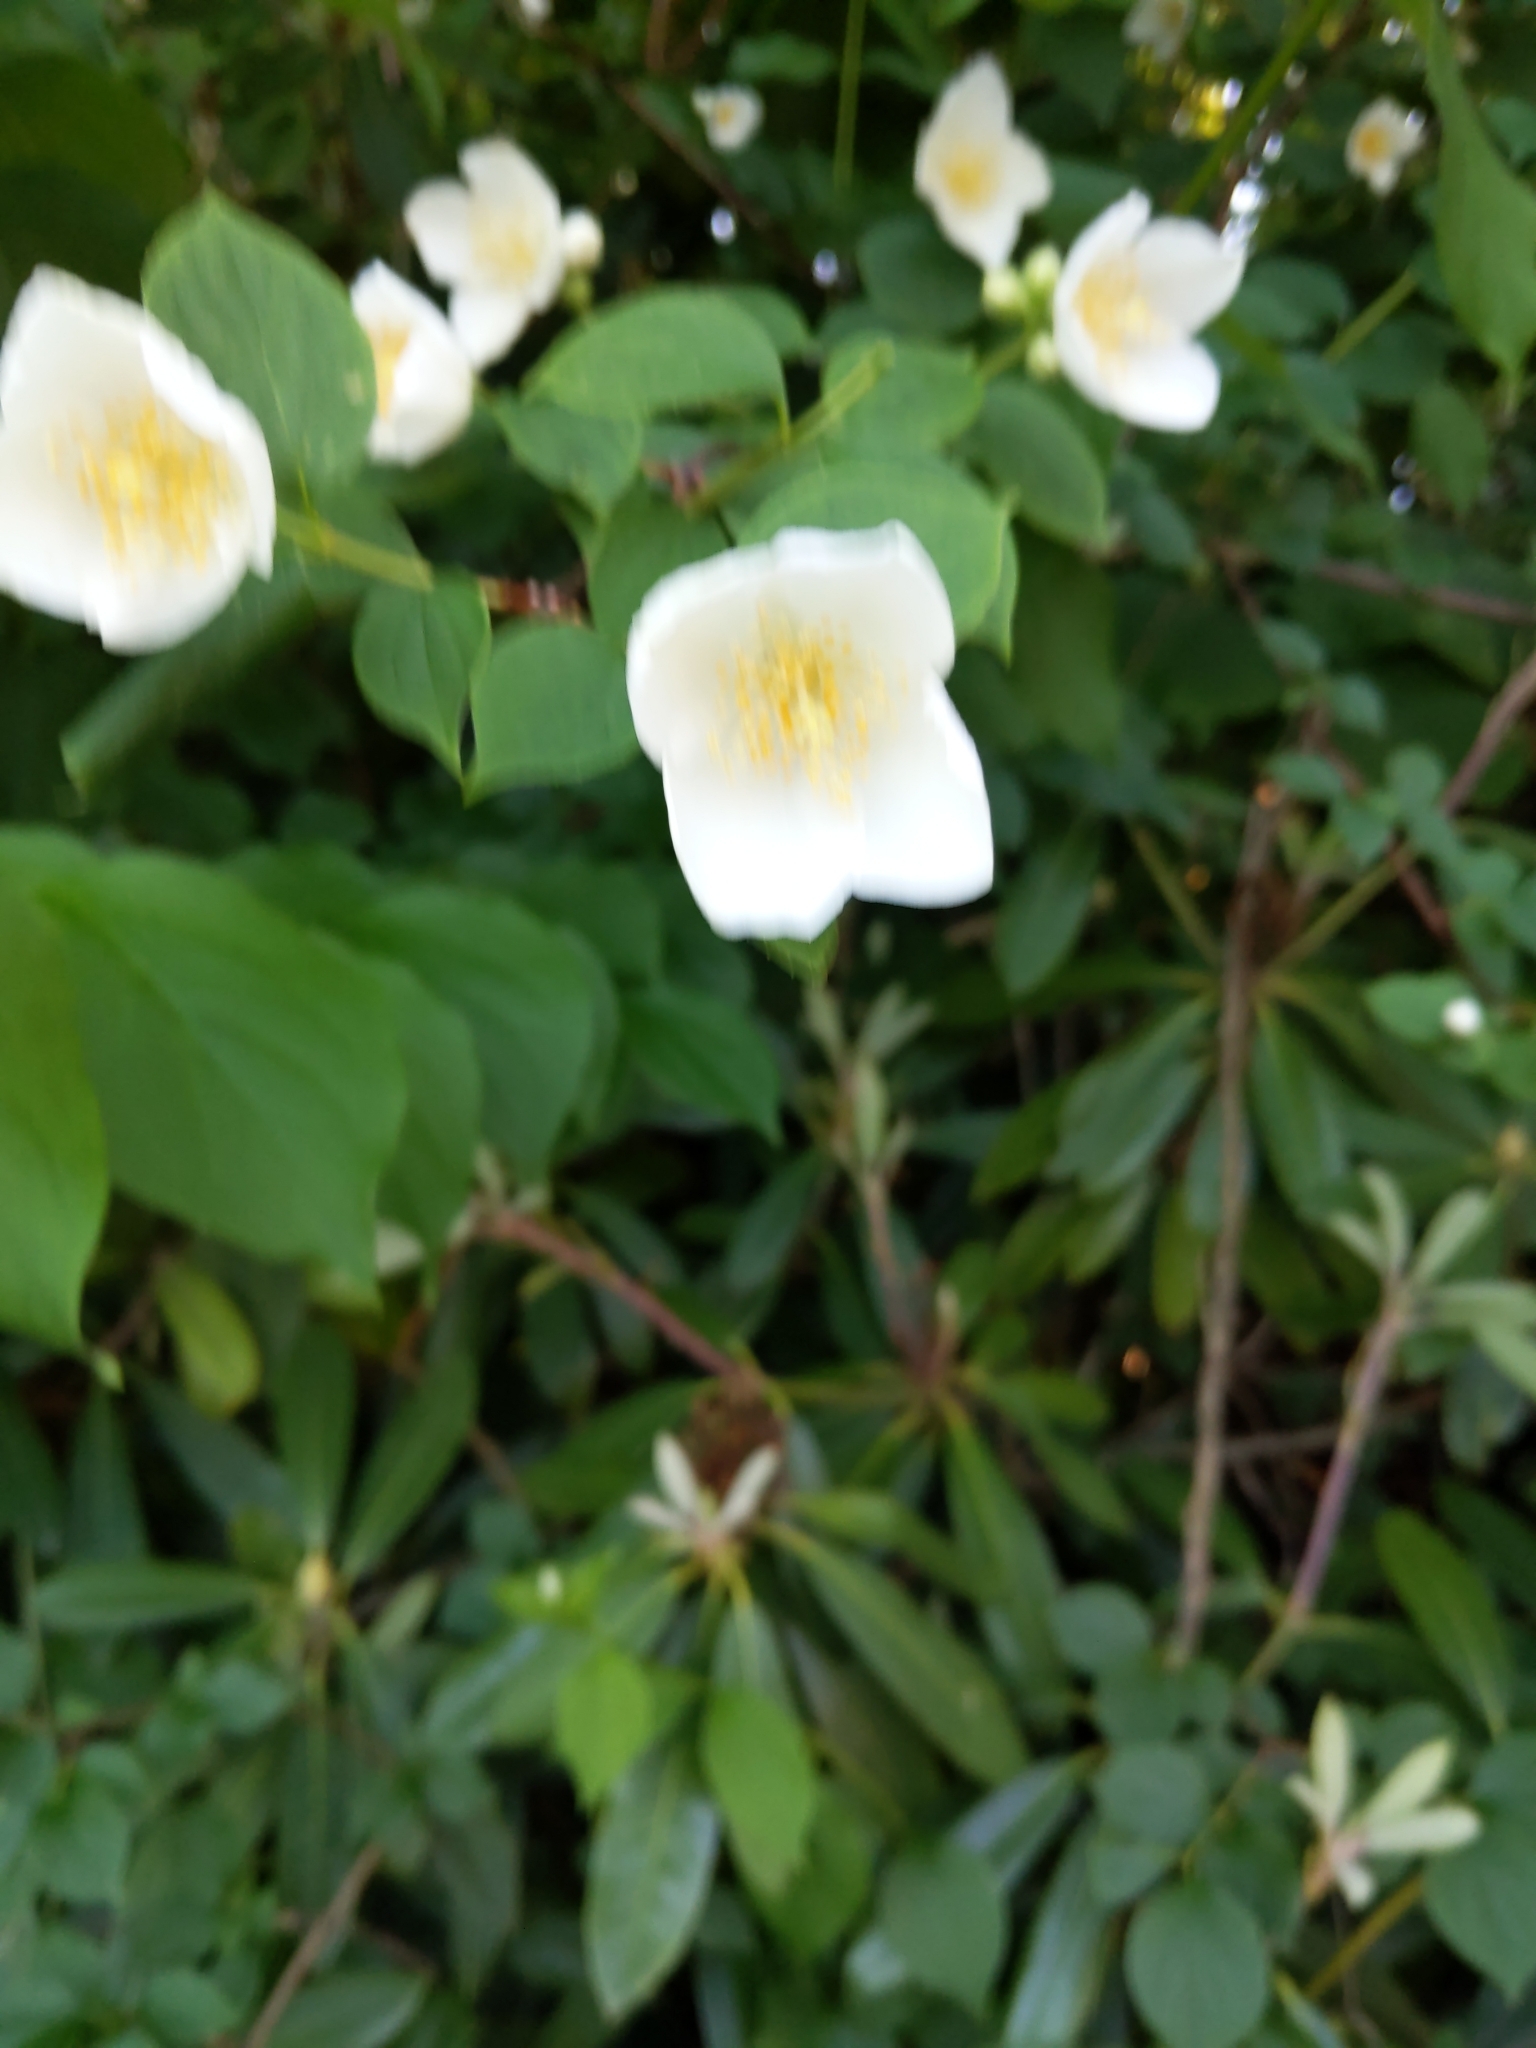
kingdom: Plantae
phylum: Tracheophyta
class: Magnoliopsida
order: Cornales
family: Hydrangeaceae
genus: Philadelphus
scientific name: Philadelphus coronarius
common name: Mock orange
